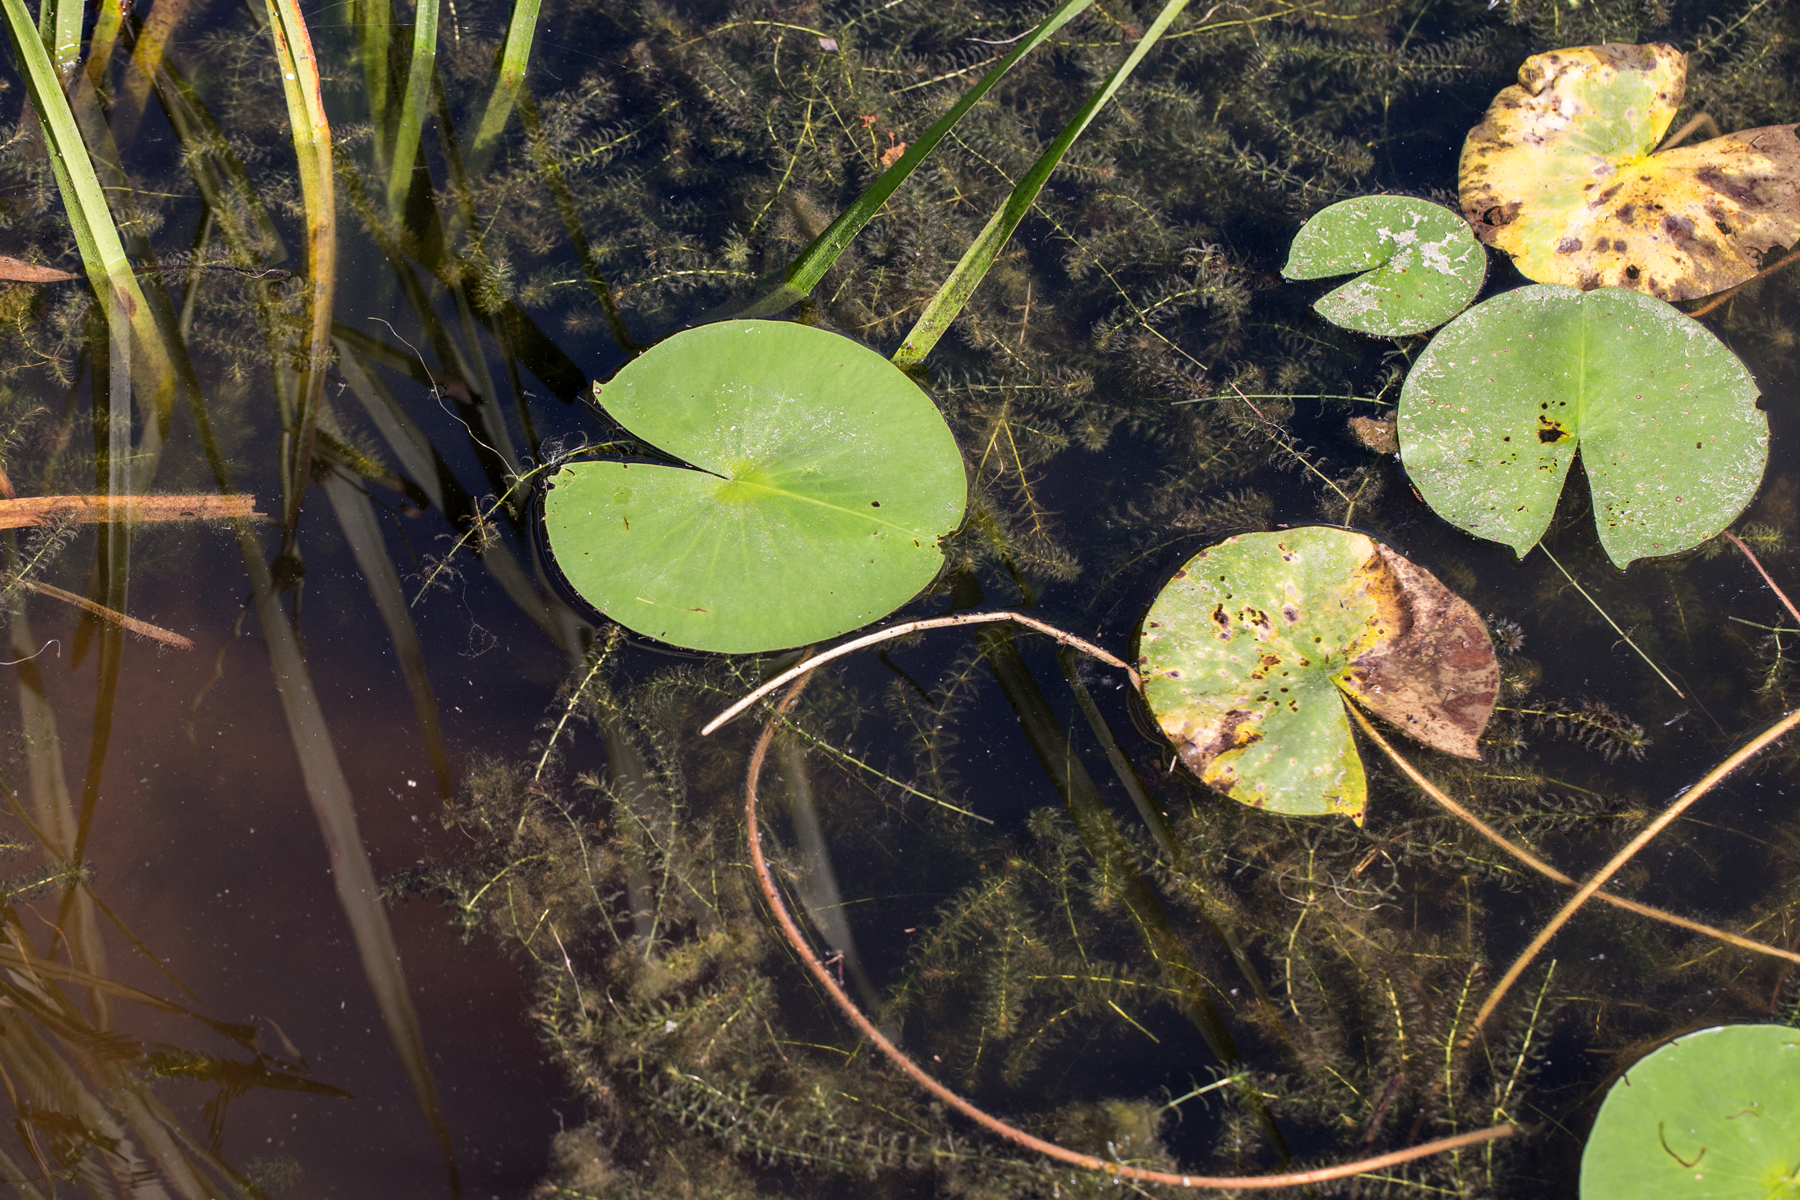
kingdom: Plantae
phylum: Tracheophyta
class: Magnoliopsida
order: Nymphaeales
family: Nymphaeaceae
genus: Nymphaea
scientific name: Nymphaea odorata
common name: Fragrant water-lily
